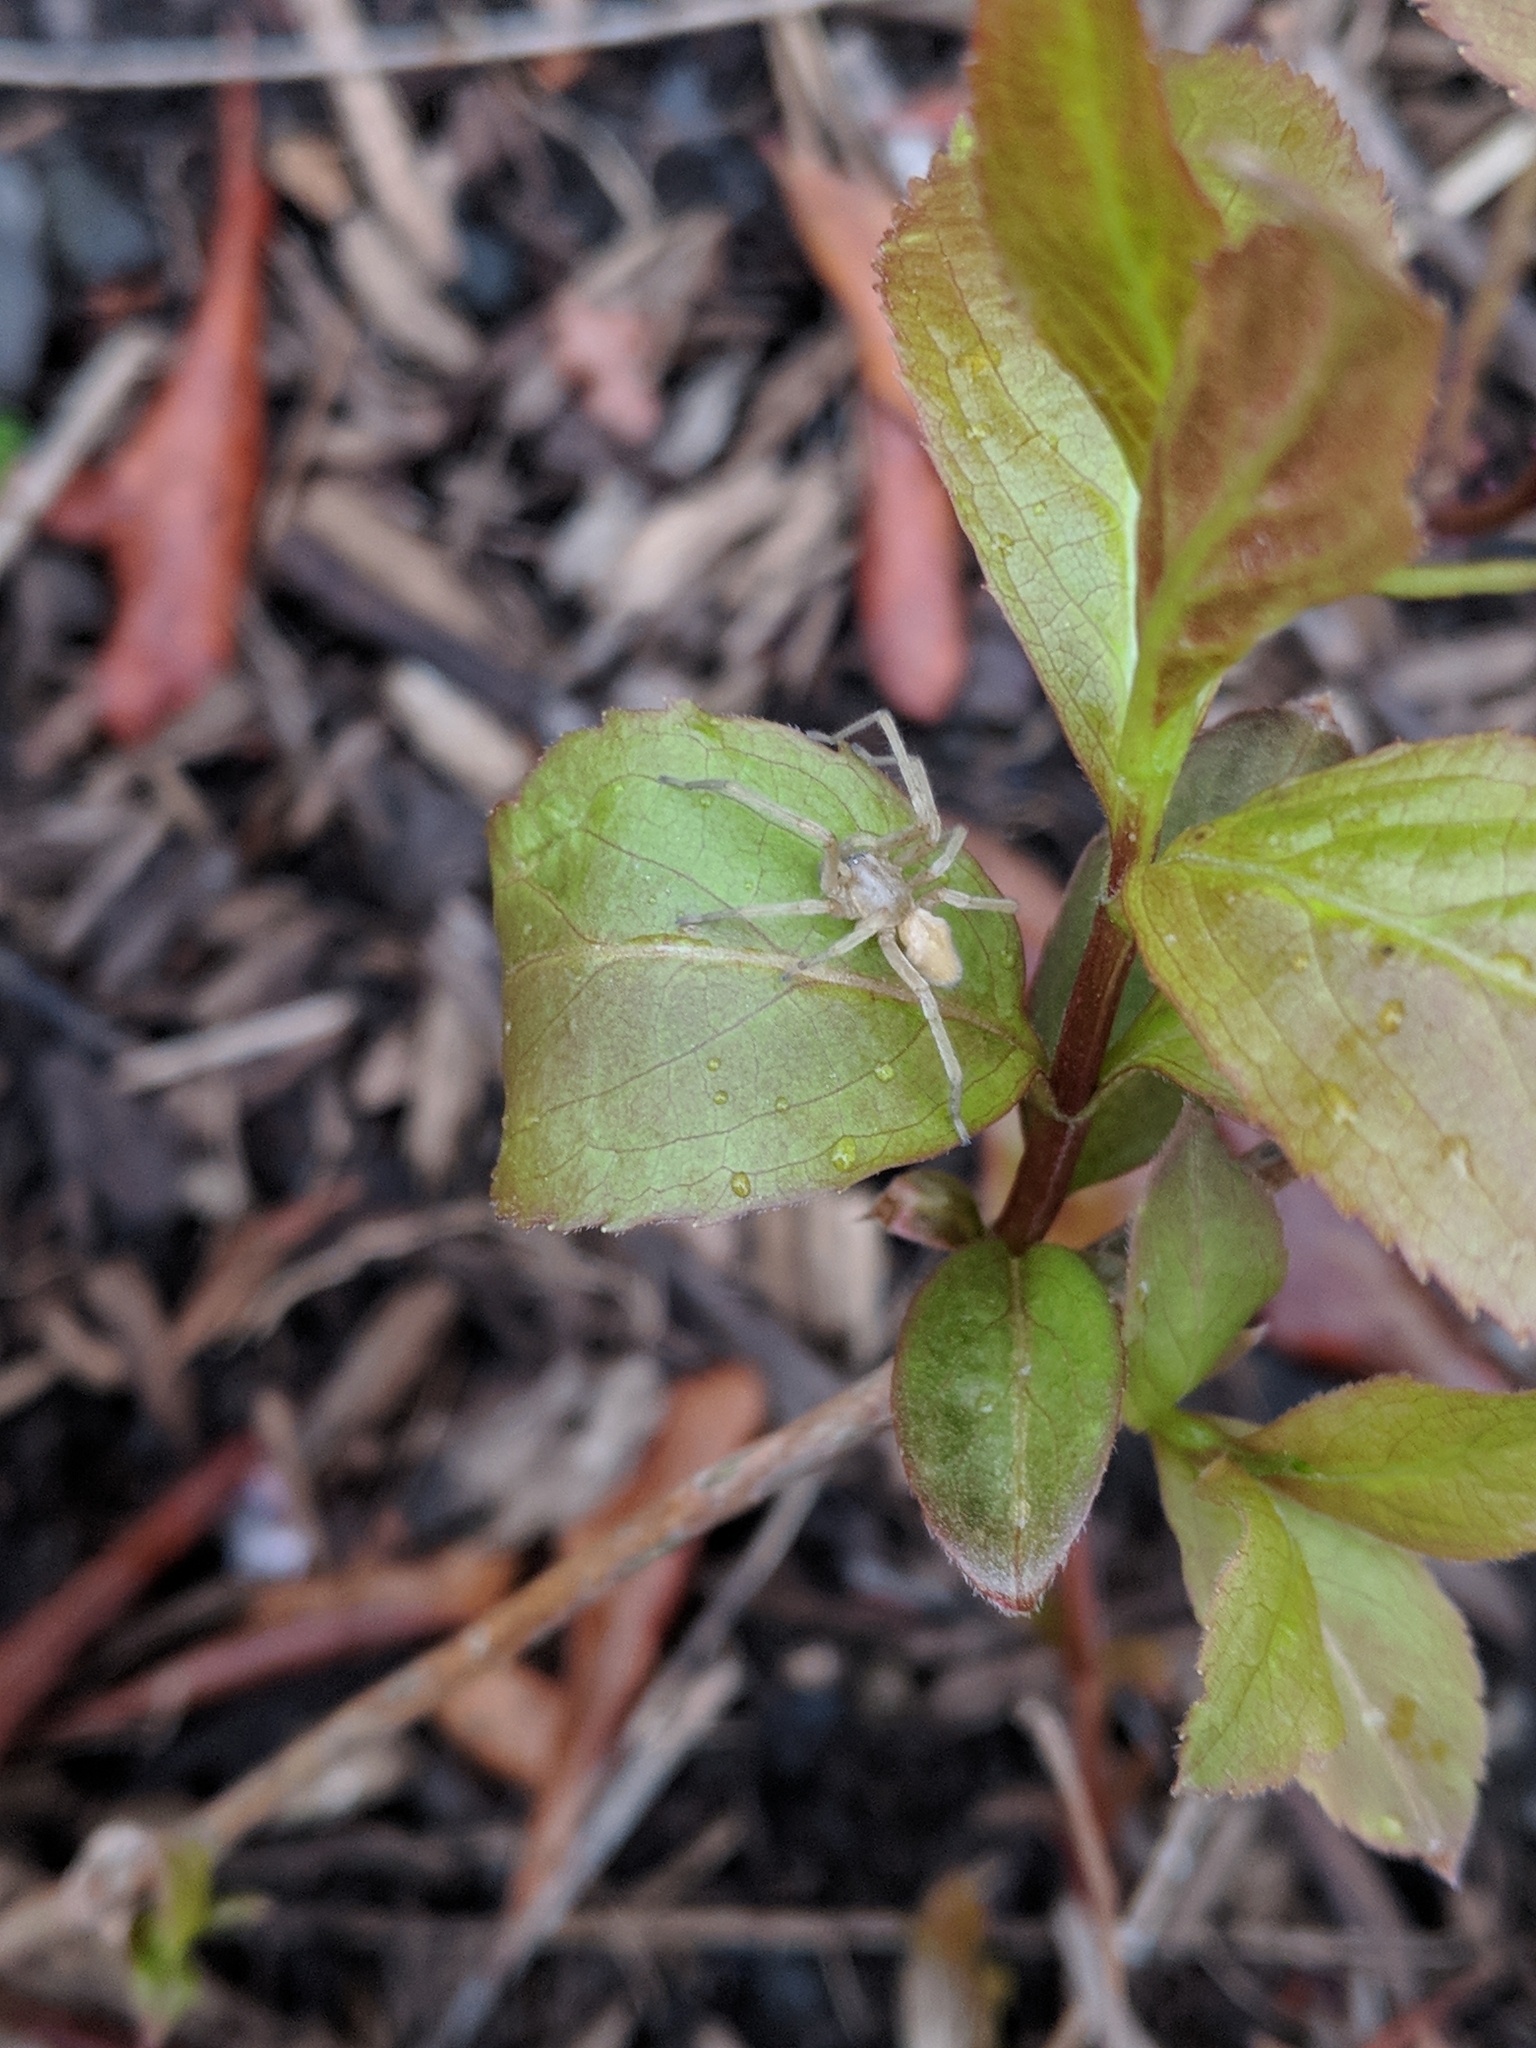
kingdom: Animalia
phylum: Arthropoda
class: Arachnida
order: Araneae
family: Cheiracanthiidae
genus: Cheiracanthium
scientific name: Cheiracanthium mildei
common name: Northern yellow sac spider
